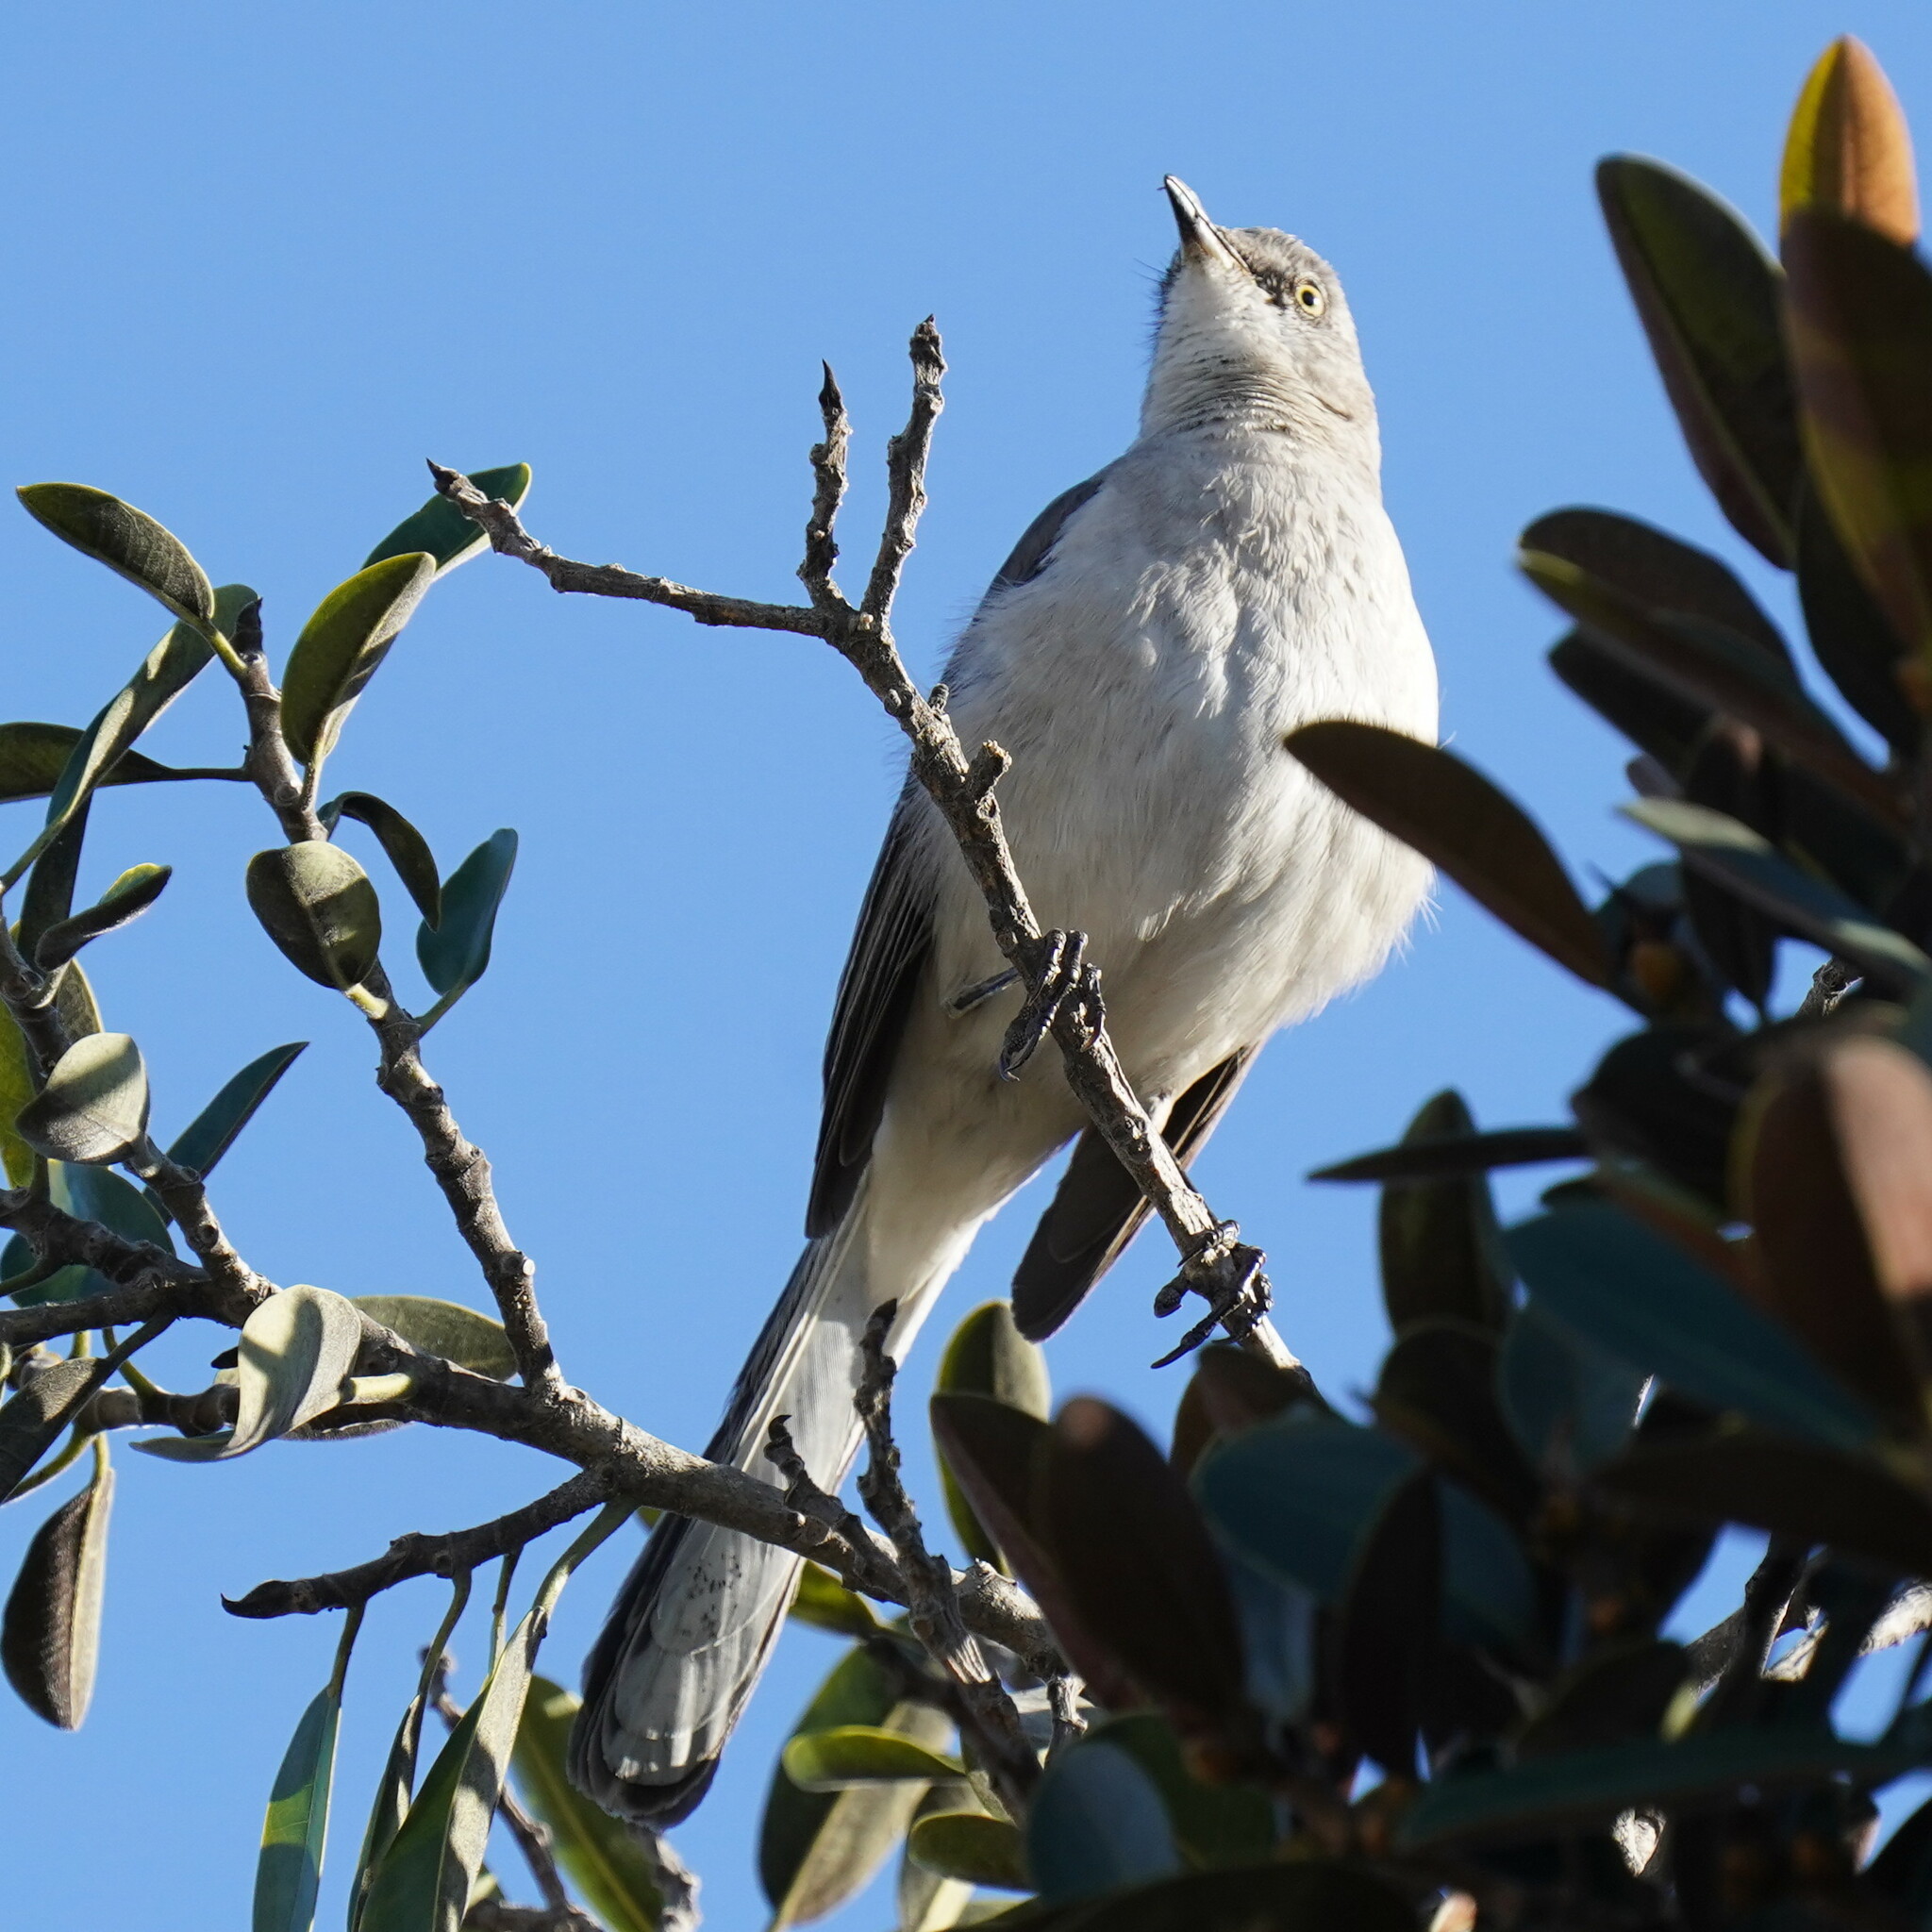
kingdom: Animalia
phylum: Chordata
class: Aves
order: Passeriformes
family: Mimidae
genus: Mimus
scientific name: Mimus polyglottos
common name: Northern mockingbird
